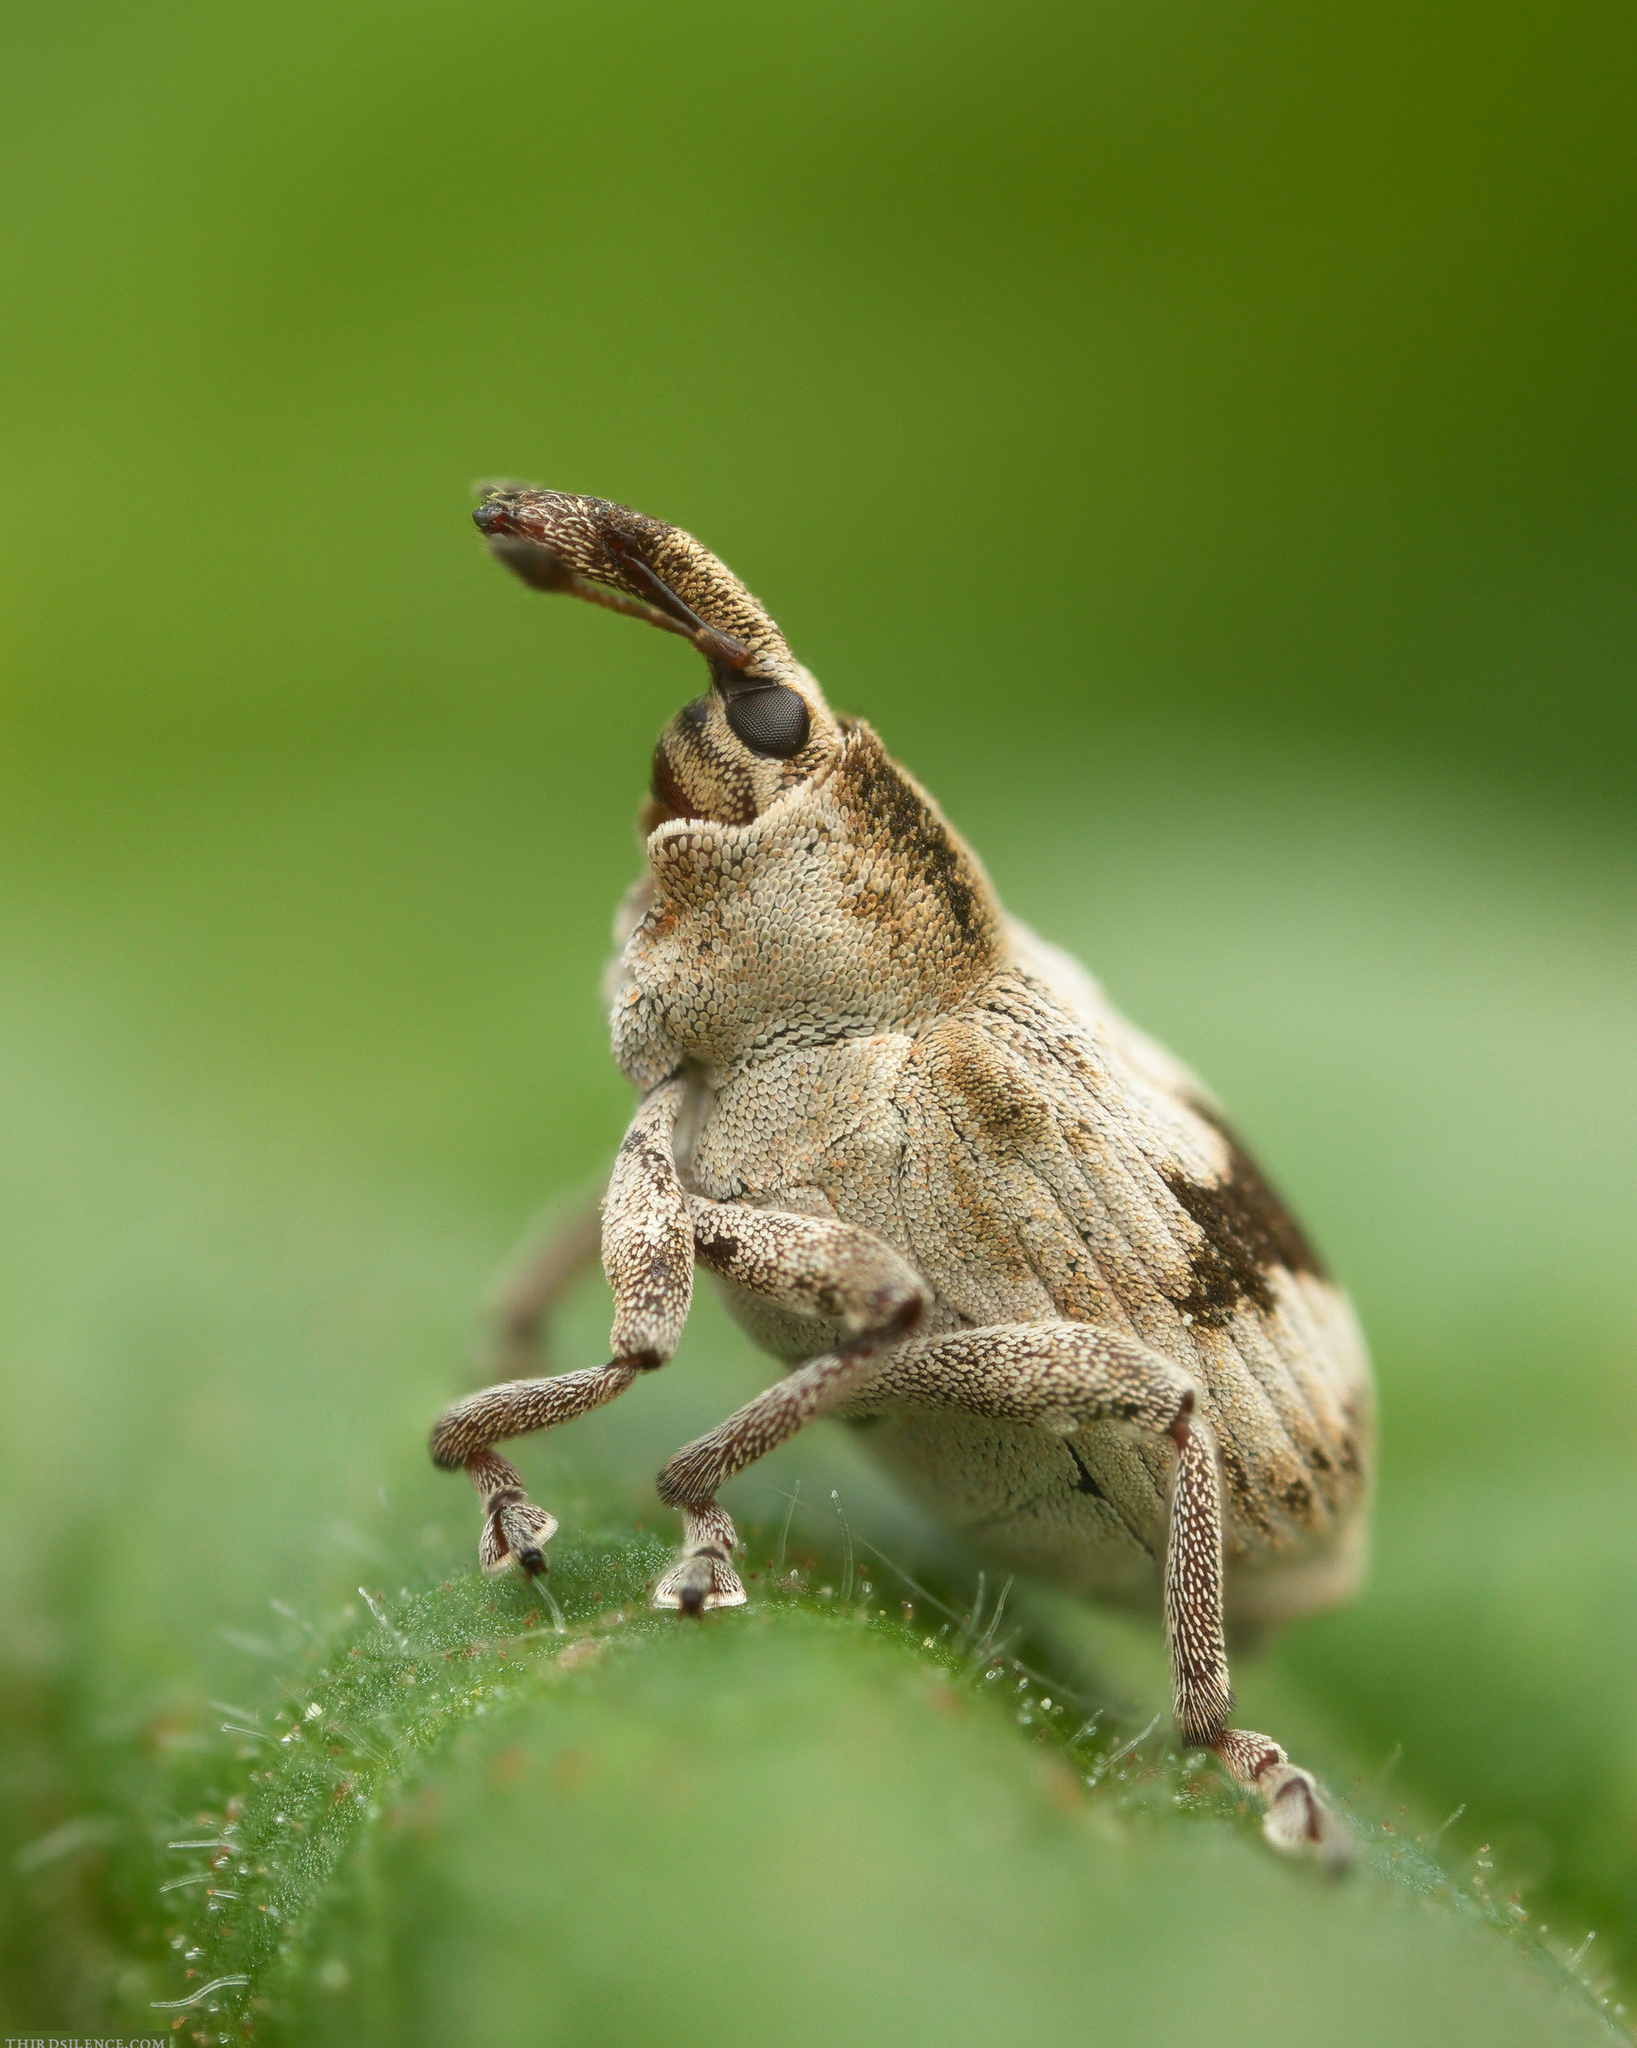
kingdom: Animalia
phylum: Arthropoda
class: Insecta
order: Coleoptera
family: Curculionidae
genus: Tapinotus
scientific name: Tapinotus sellatus
